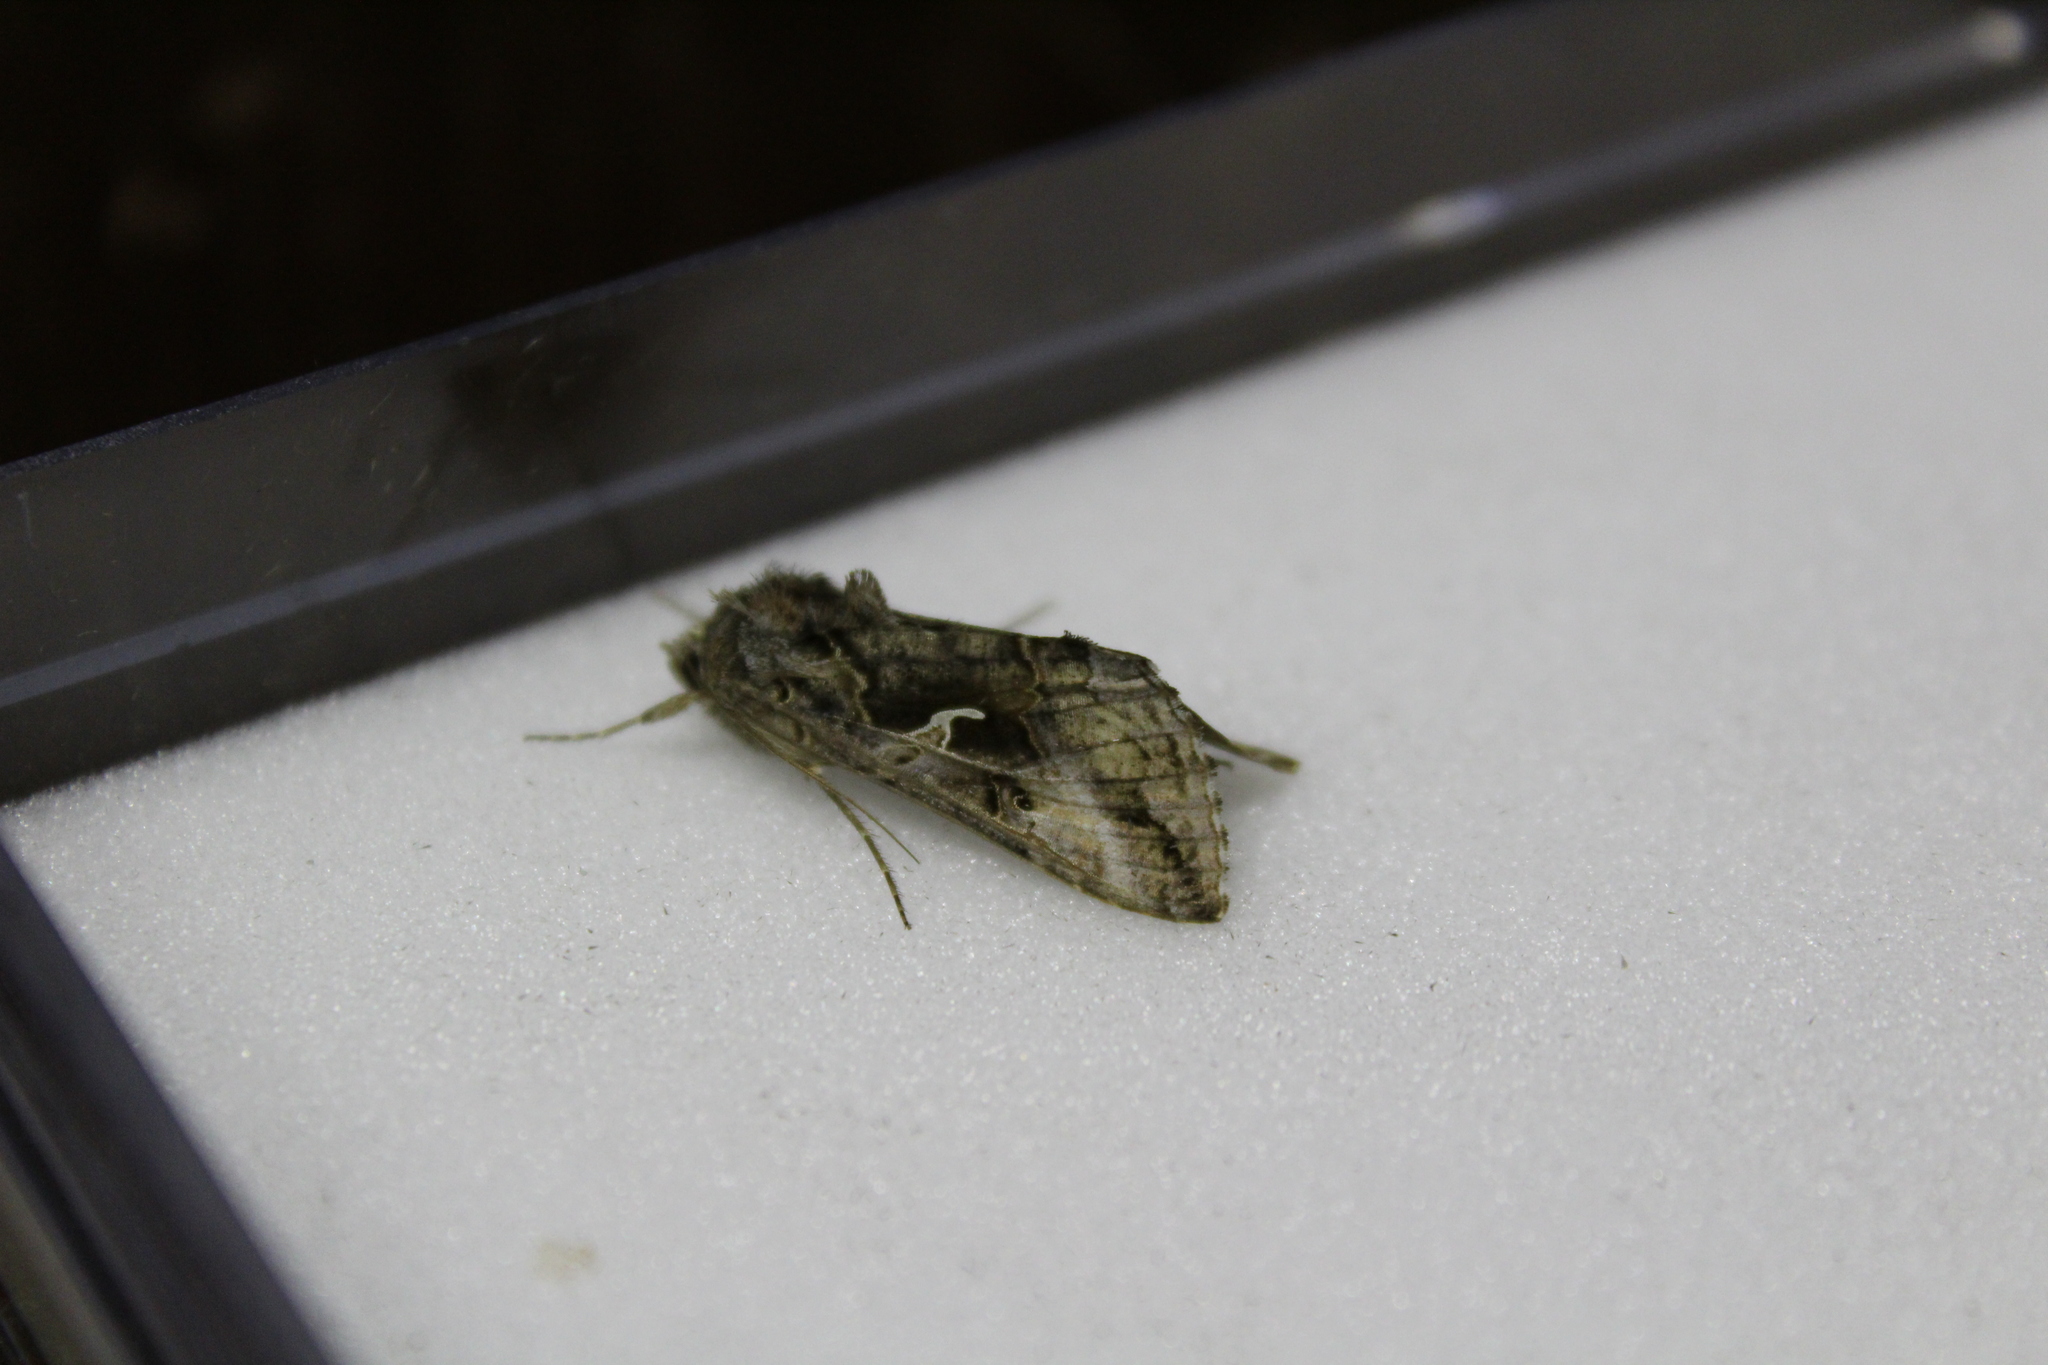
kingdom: Animalia
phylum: Arthropoda
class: Insecta
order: Lepidoptera
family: Noctuidae
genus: Autographa
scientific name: Autographa gamma
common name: Silver y
